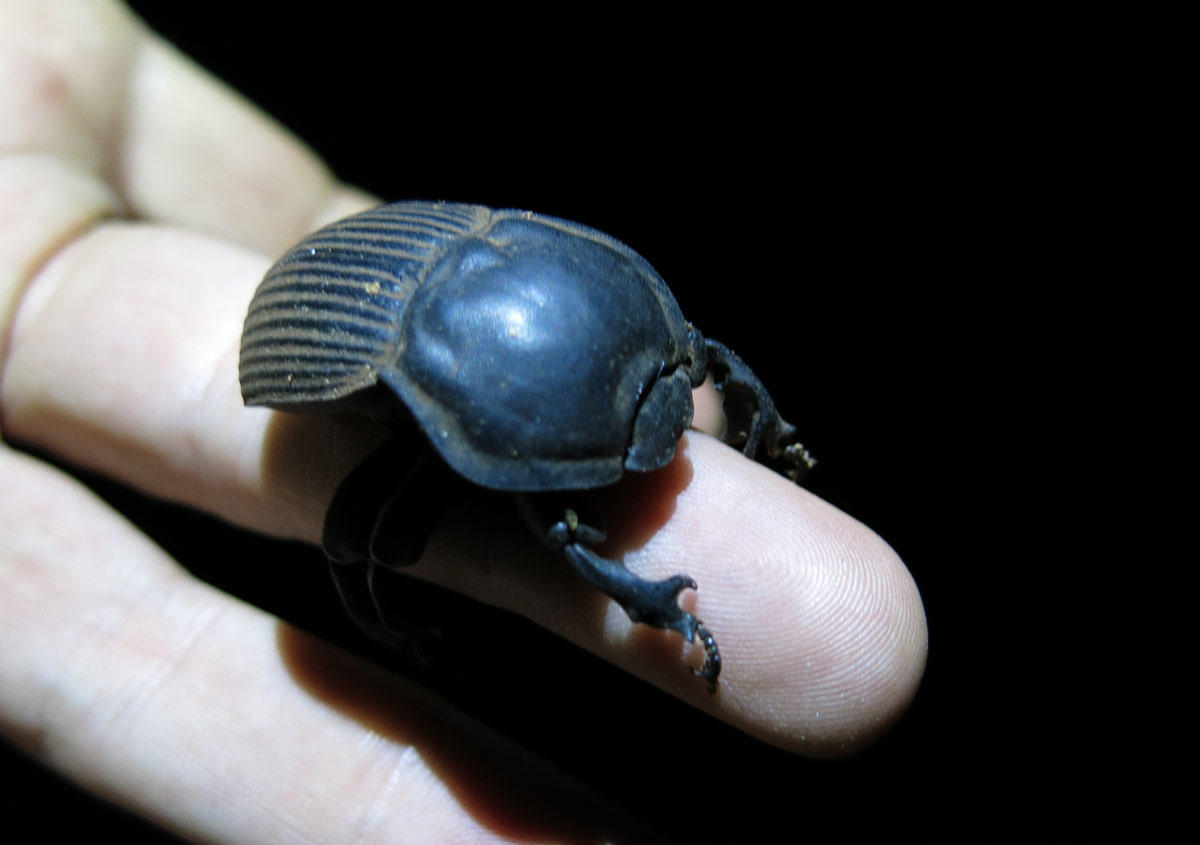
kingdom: Animalia
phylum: Arthropoda
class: Insecta
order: Coleoptera
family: Tenebrionidae
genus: Anomalipus
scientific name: Anomalipus
